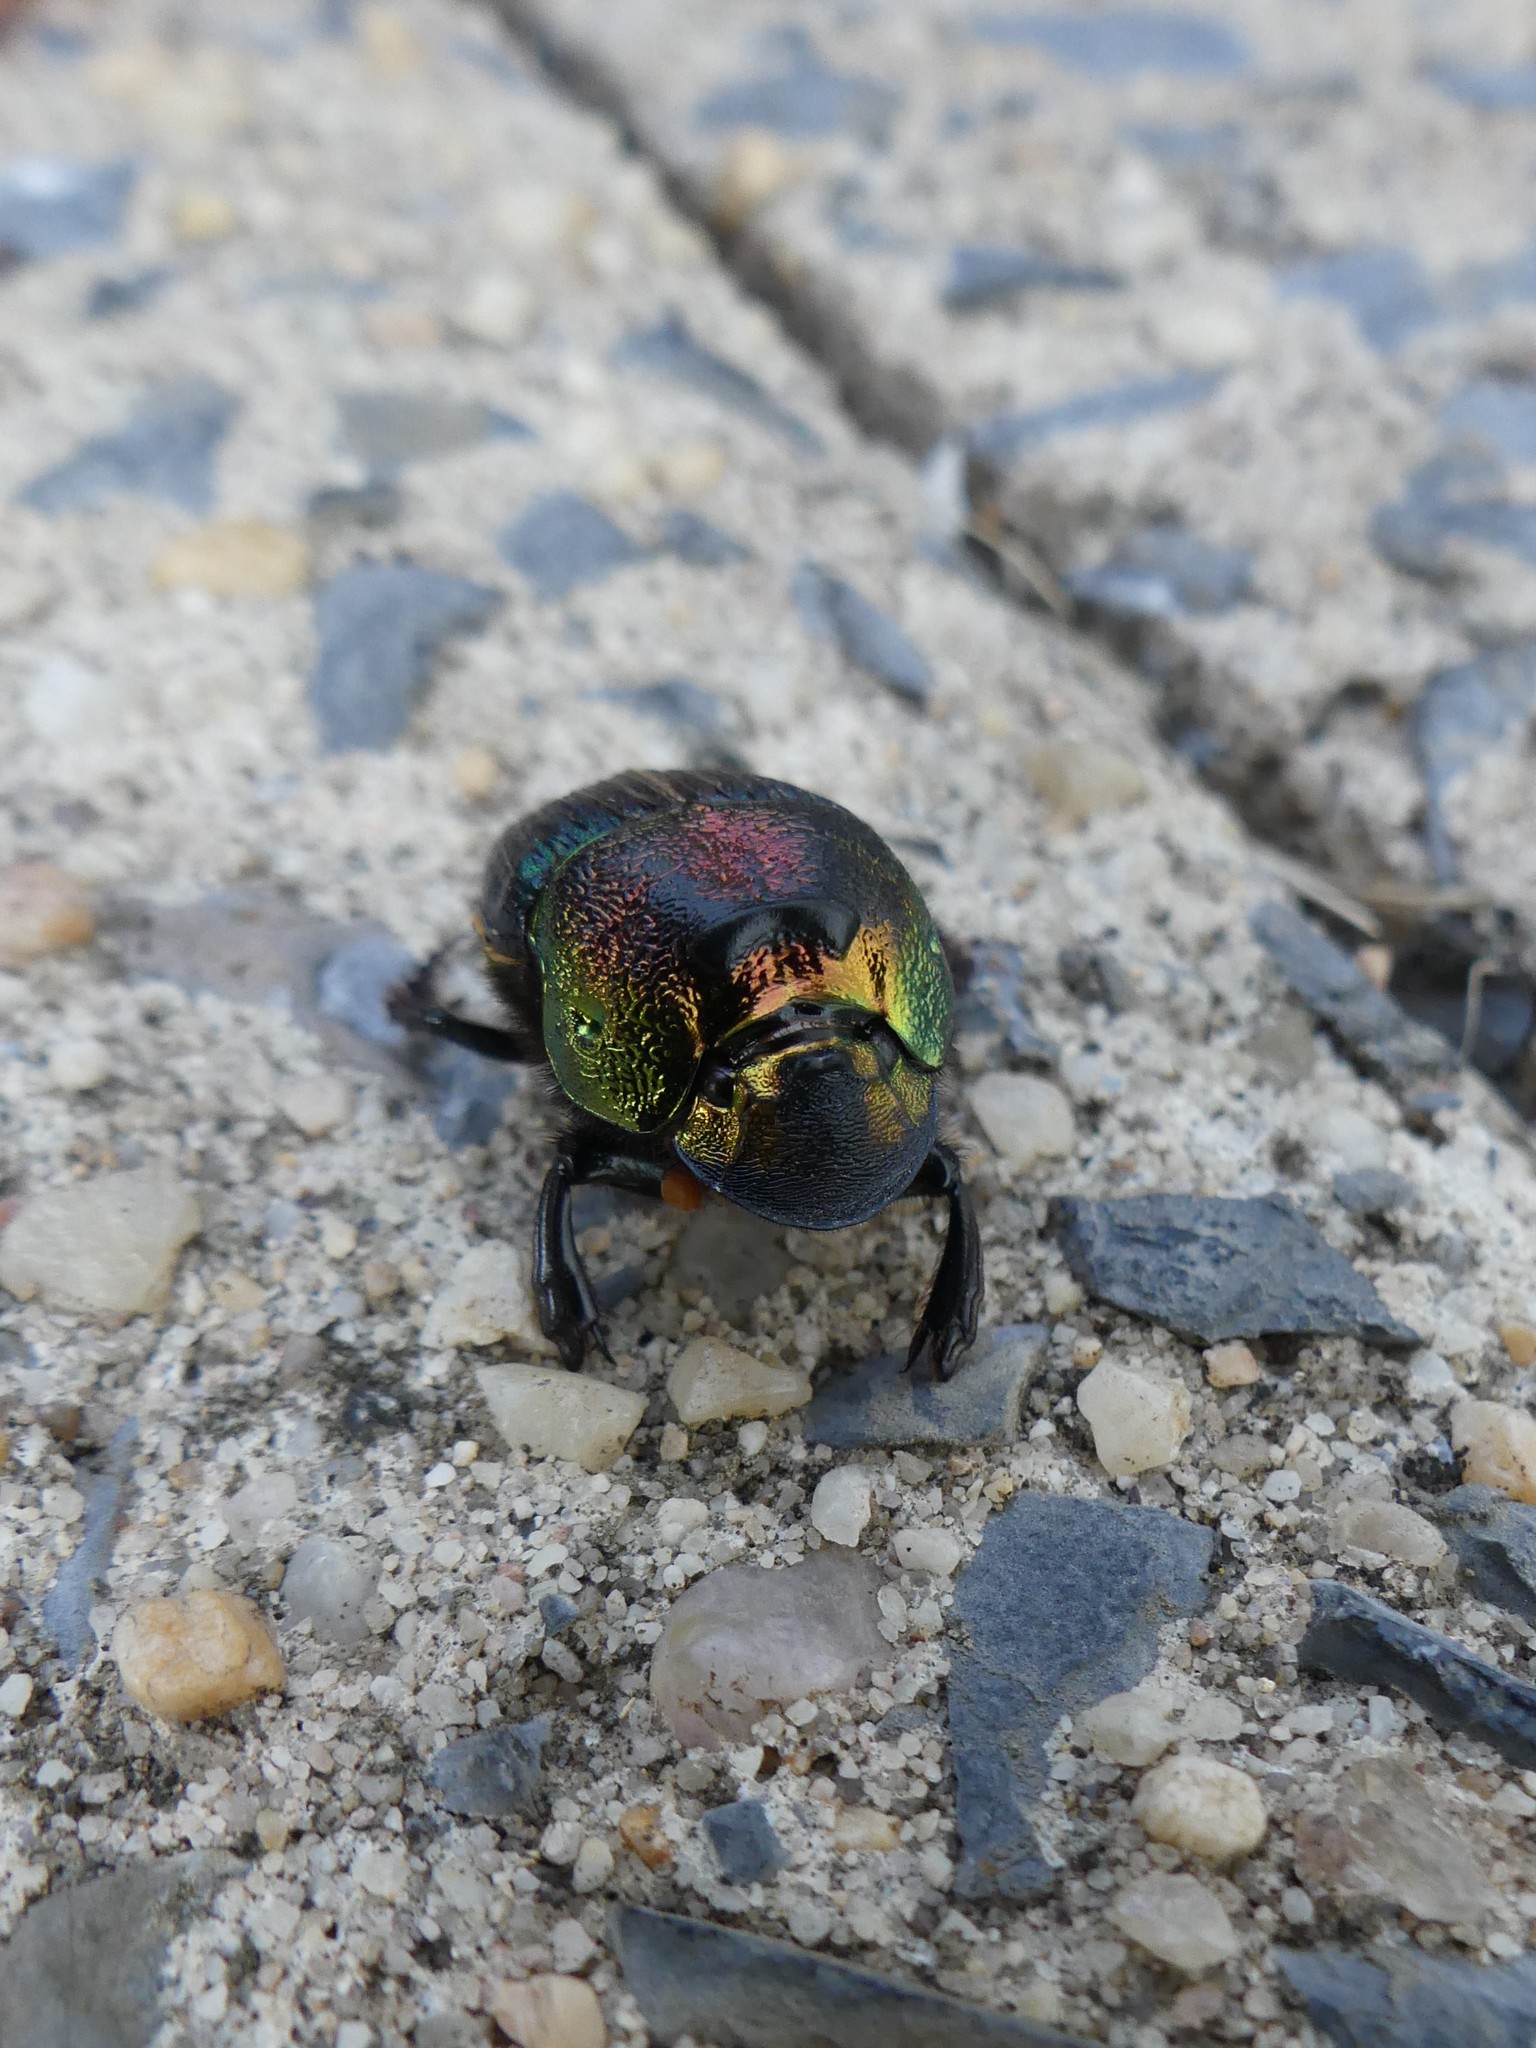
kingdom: Animalia
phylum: Arthropoda
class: Insecta
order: Coleoptera
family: Scarabaeidae
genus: Phanaeus
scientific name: Phanaeus vindex
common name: Rainbow scarab
